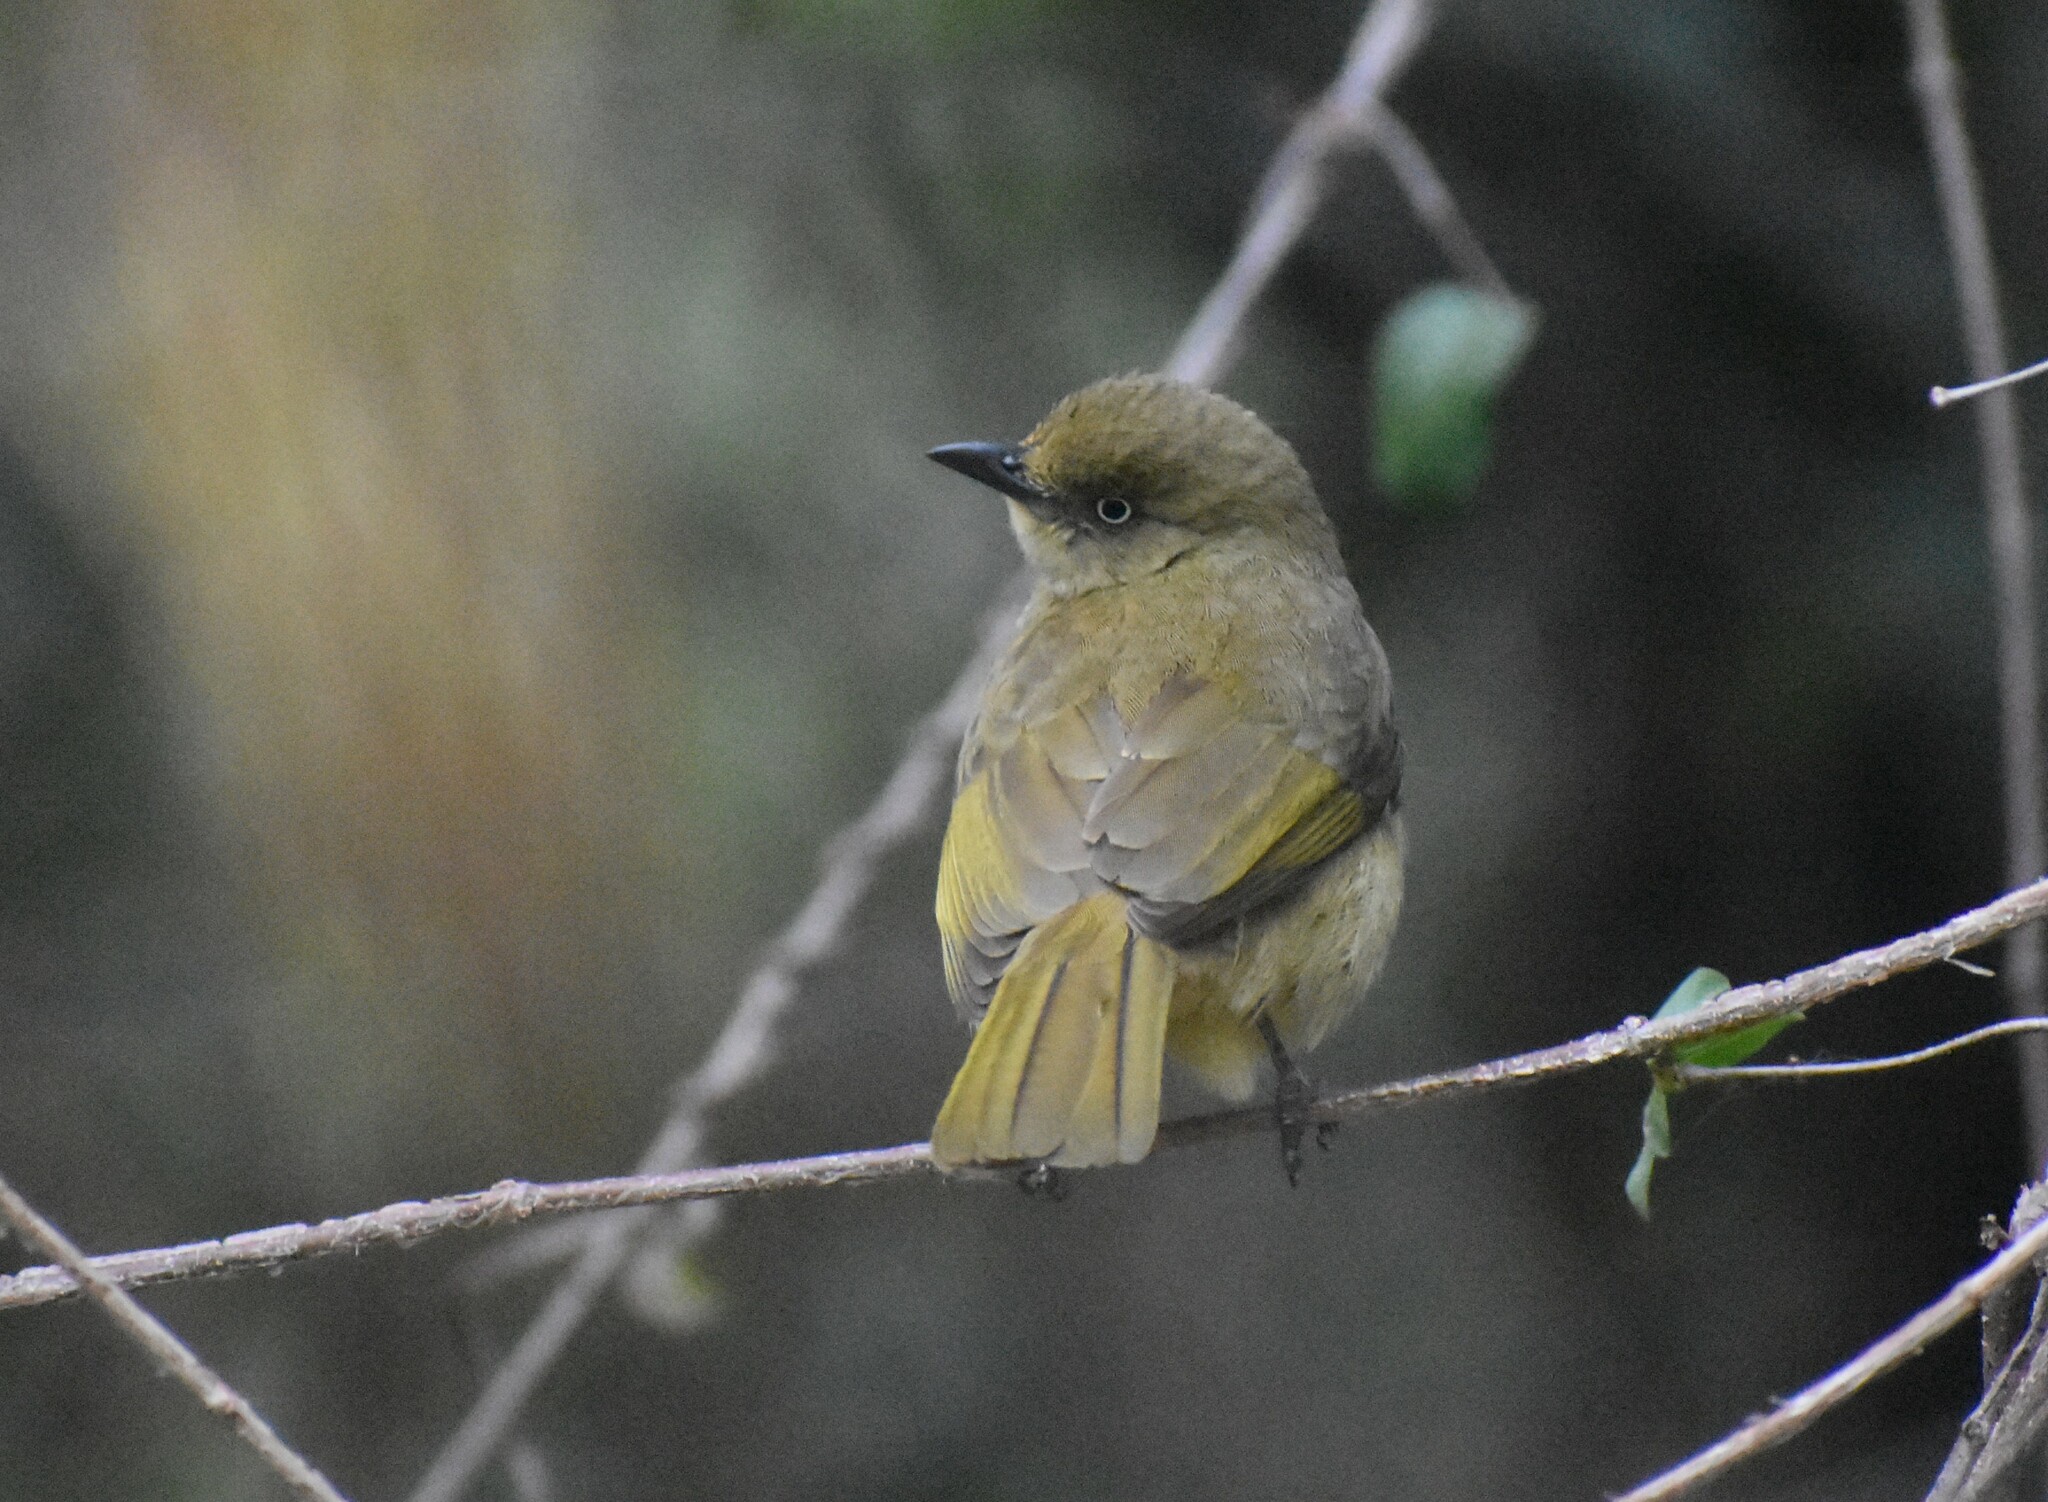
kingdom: Animalia
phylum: Chordata
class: Aves
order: Passeriformes
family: Pycnonotidae
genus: Andropadus
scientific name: Andropadus importunus
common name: Sombre greenbul
